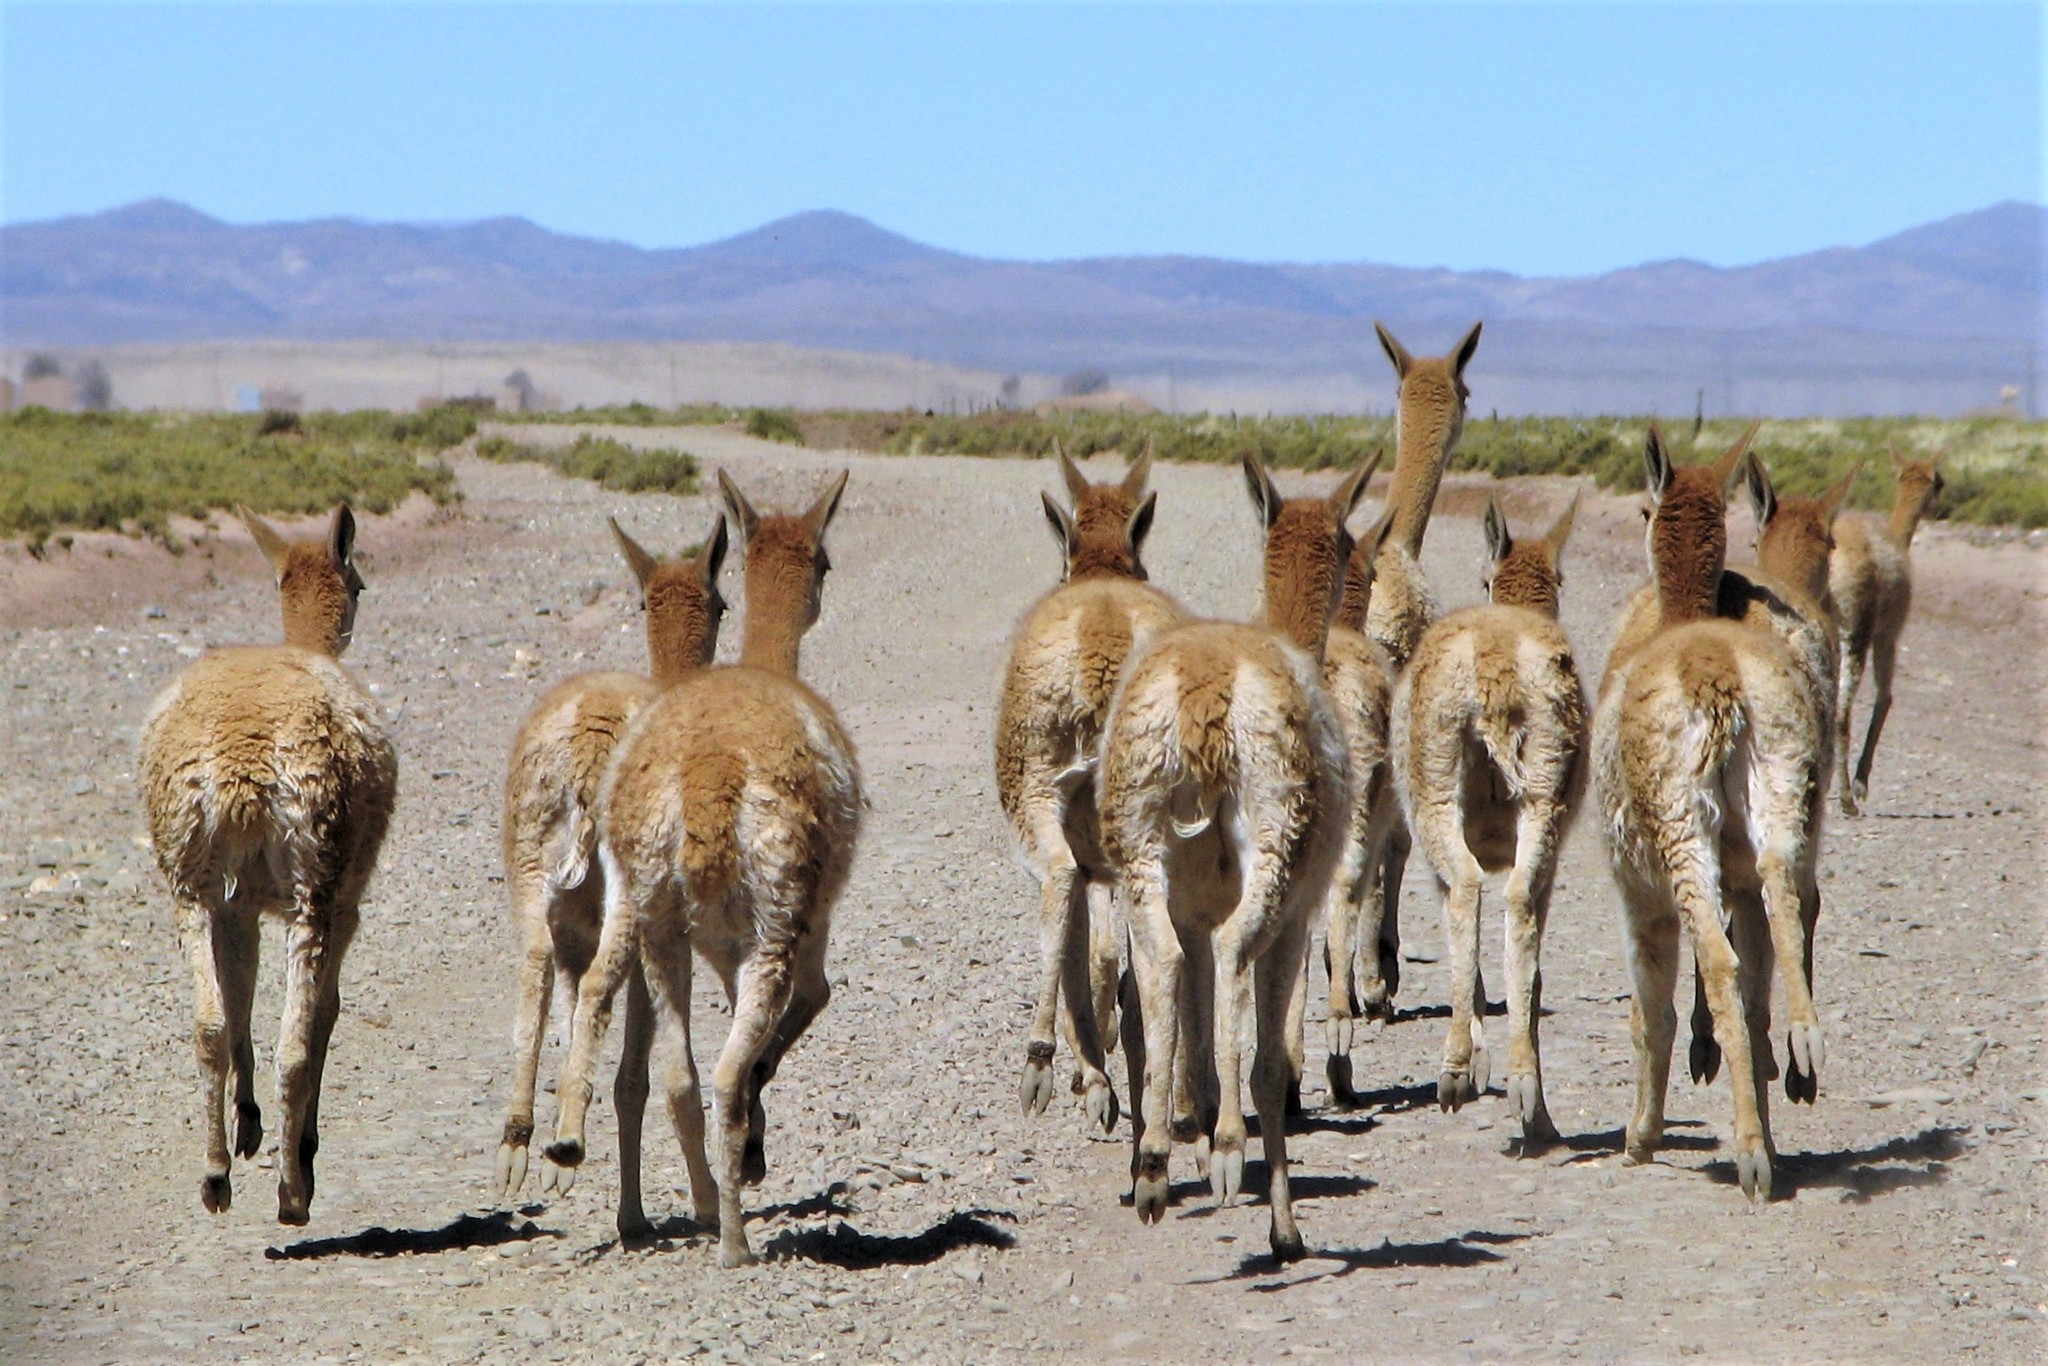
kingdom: Animalia
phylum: Chordata
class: Mammalia
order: Artiodactyla
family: Camelidae
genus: Vicugna
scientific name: Vicugna vicugna
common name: Vicugna
